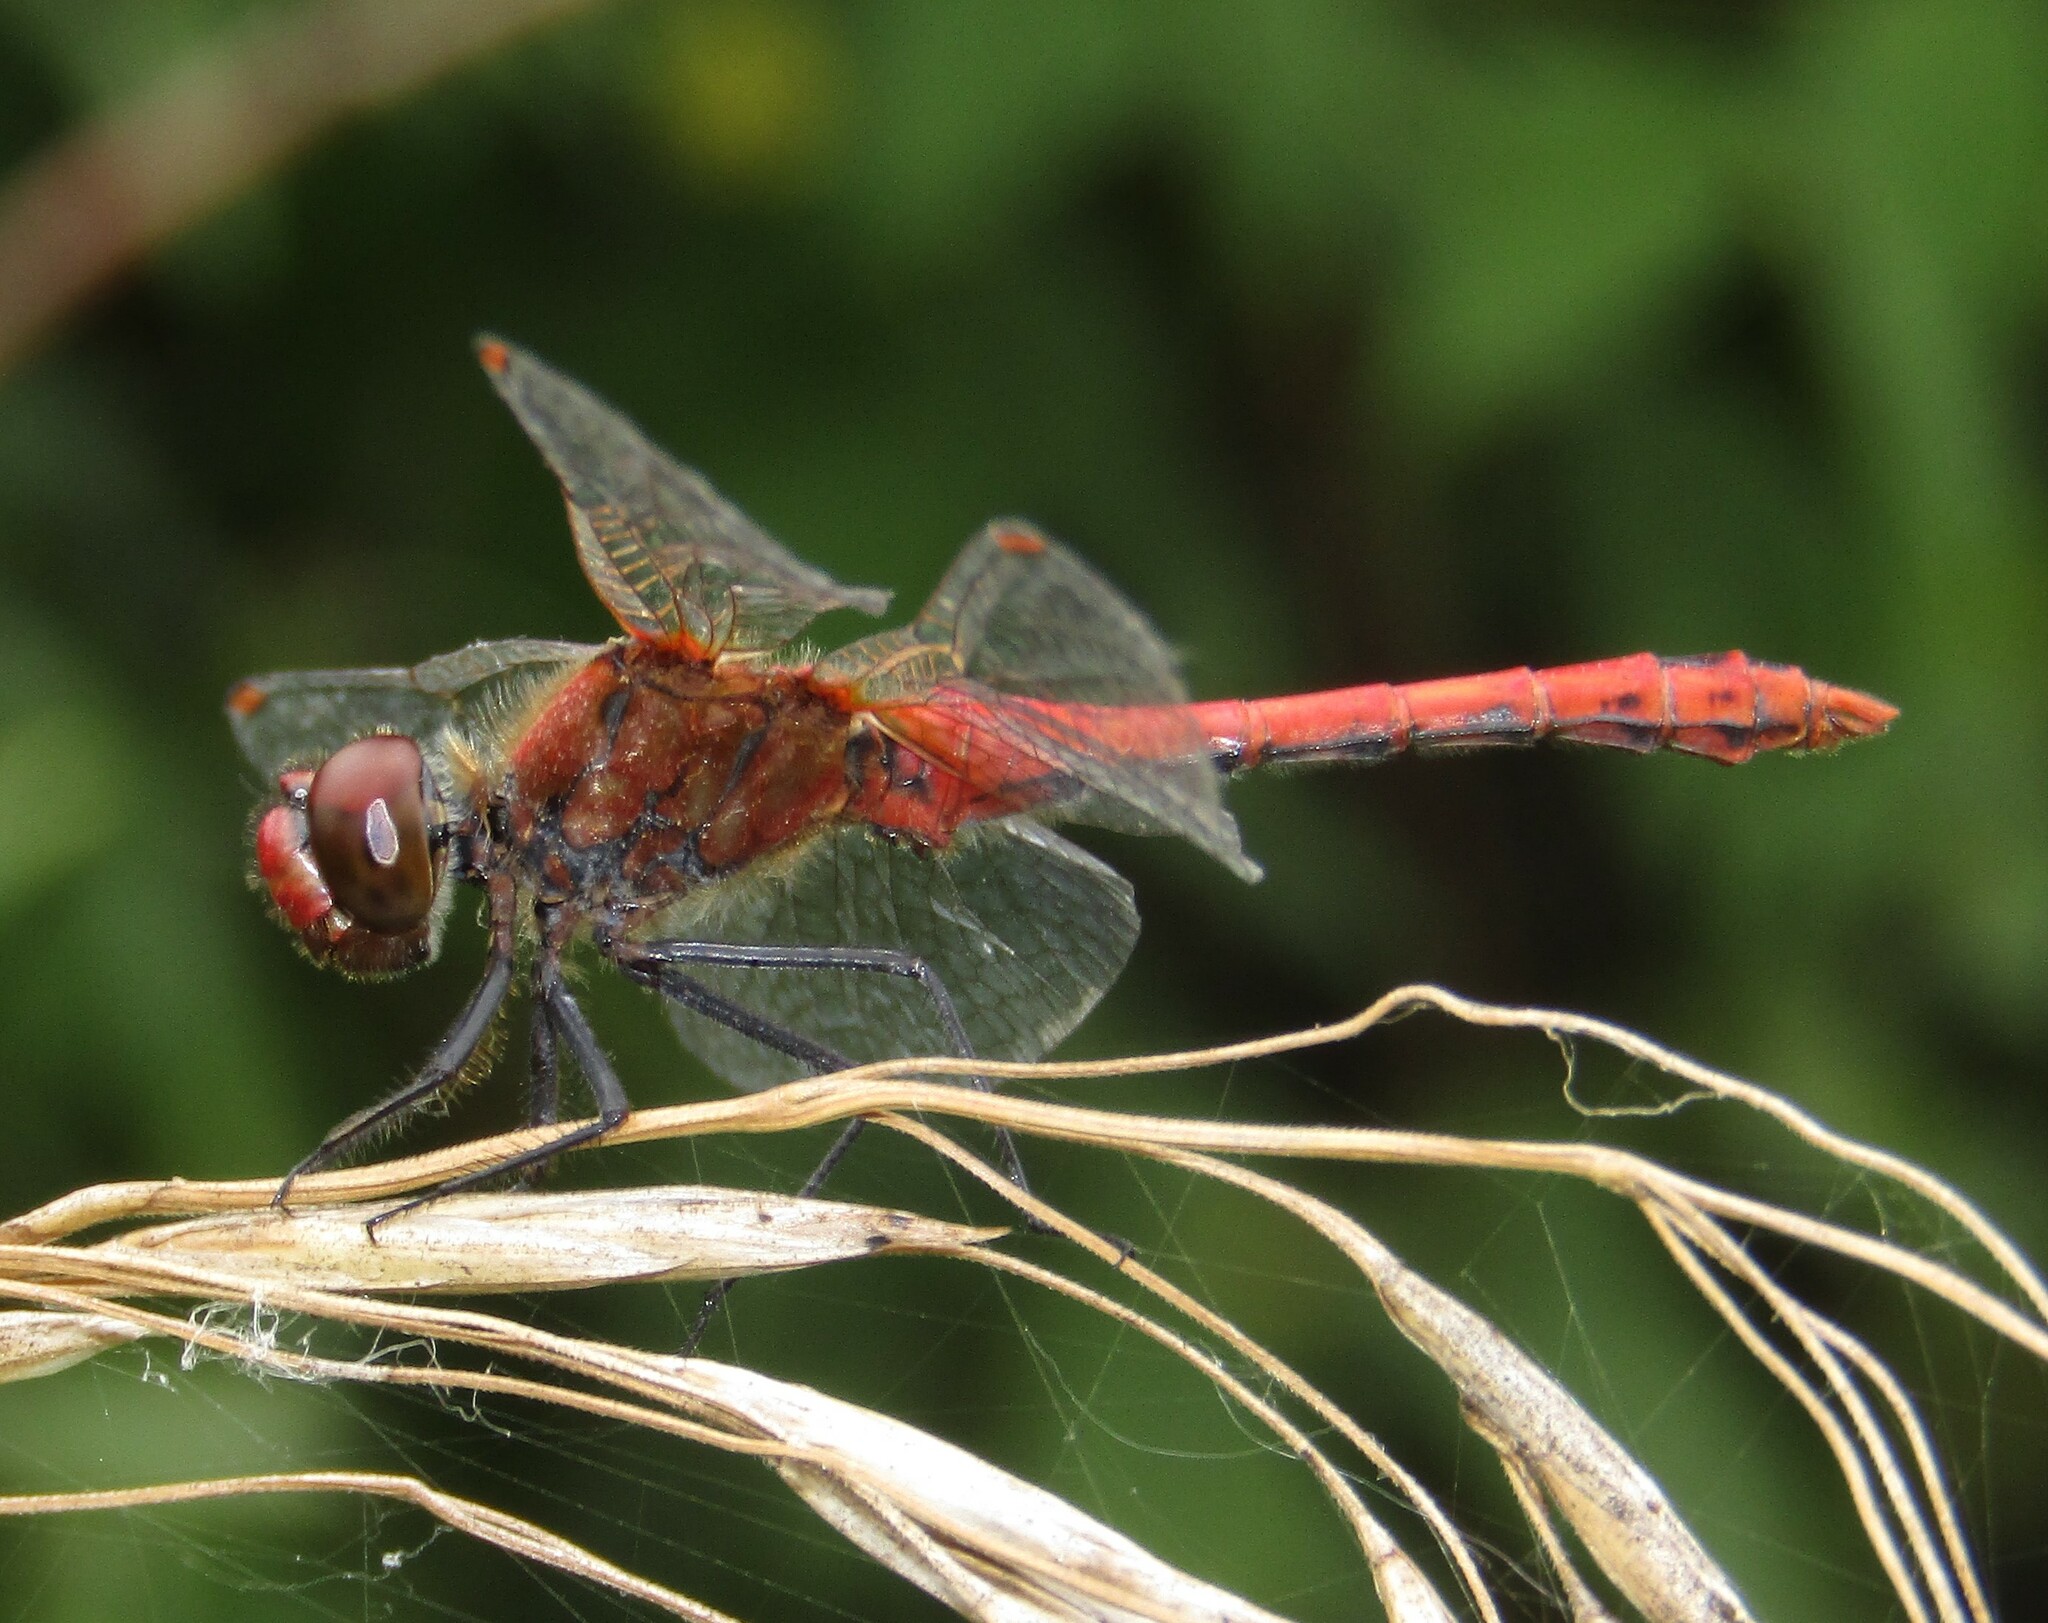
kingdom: Animalia
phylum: Arthropoda
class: Insecta
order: Odonata
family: Libellulidae
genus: Sympetrum
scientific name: Sympetrum sanguineum
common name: Ruddy darter
